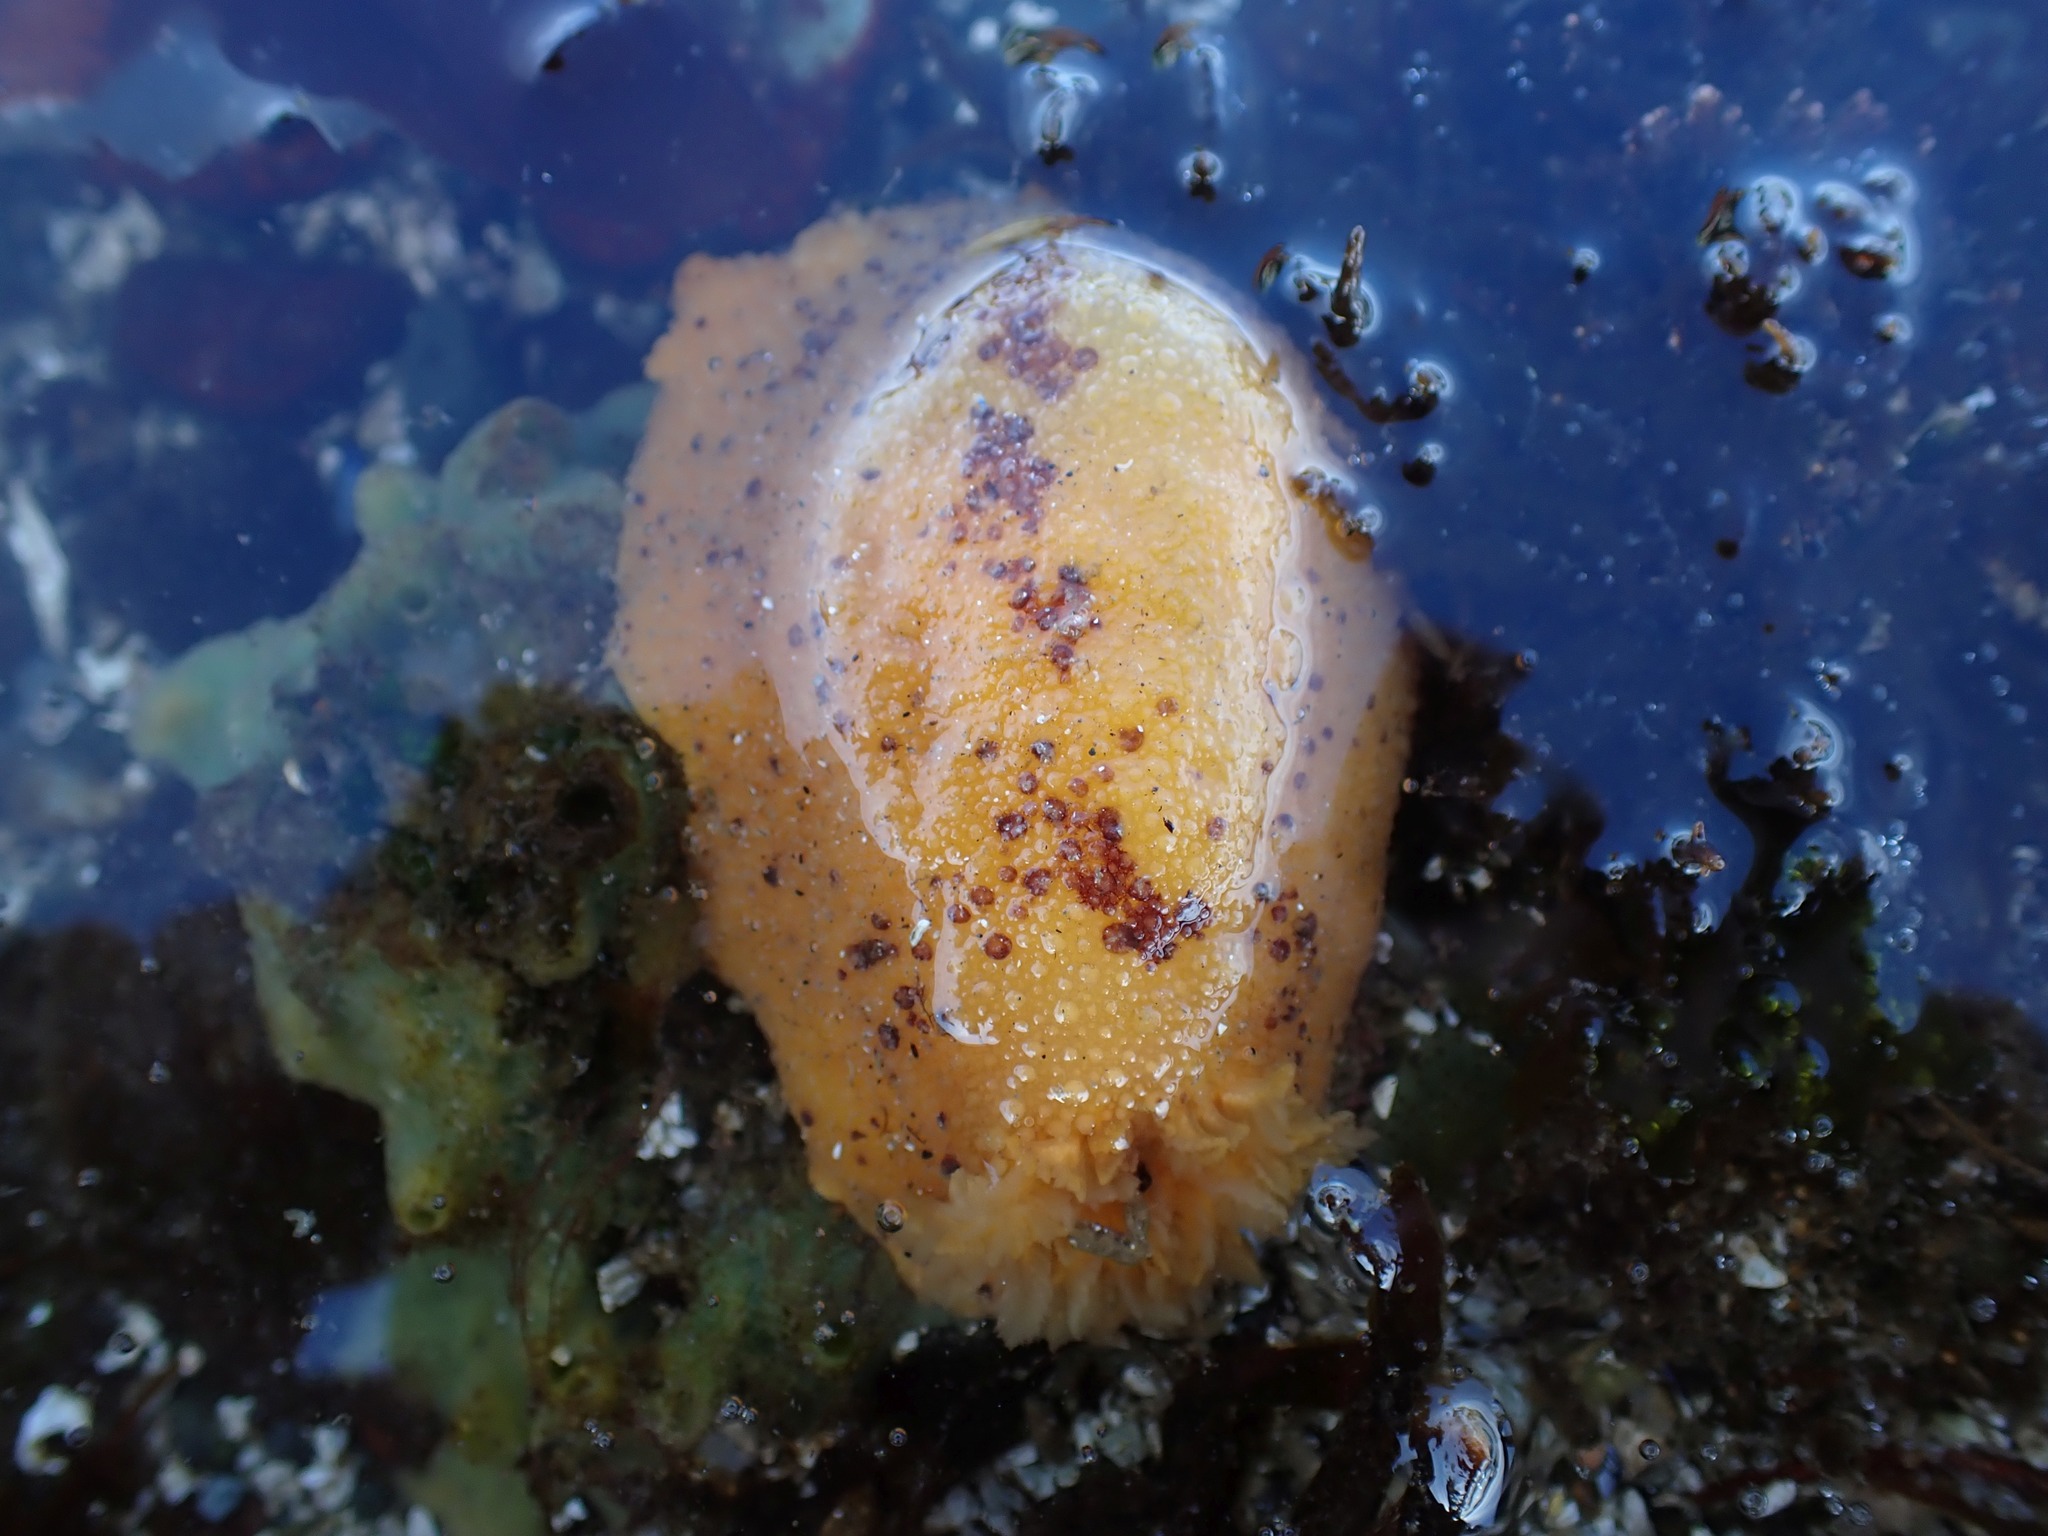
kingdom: Animalia
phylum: Mollusca
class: Gastropoda
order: Nudibranchia
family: Dorididae
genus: Doris
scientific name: Doris montereyensis
